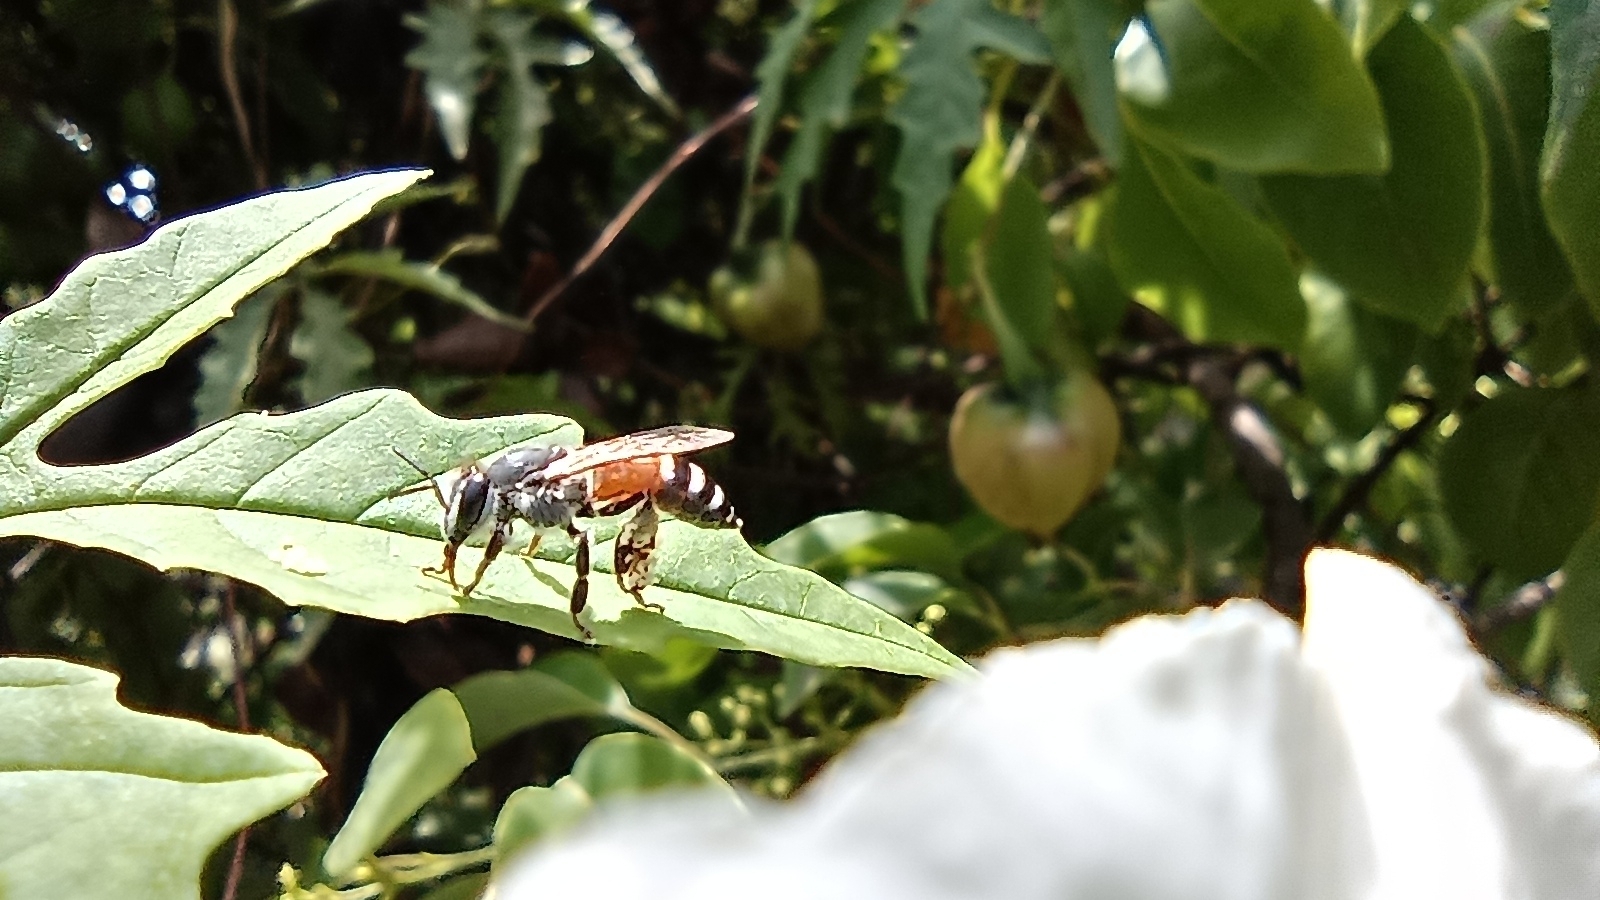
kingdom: Animalia
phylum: Arthropoda
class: Insecta
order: Hymenoptera
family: Apidae
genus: Apis
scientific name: Apis florea
